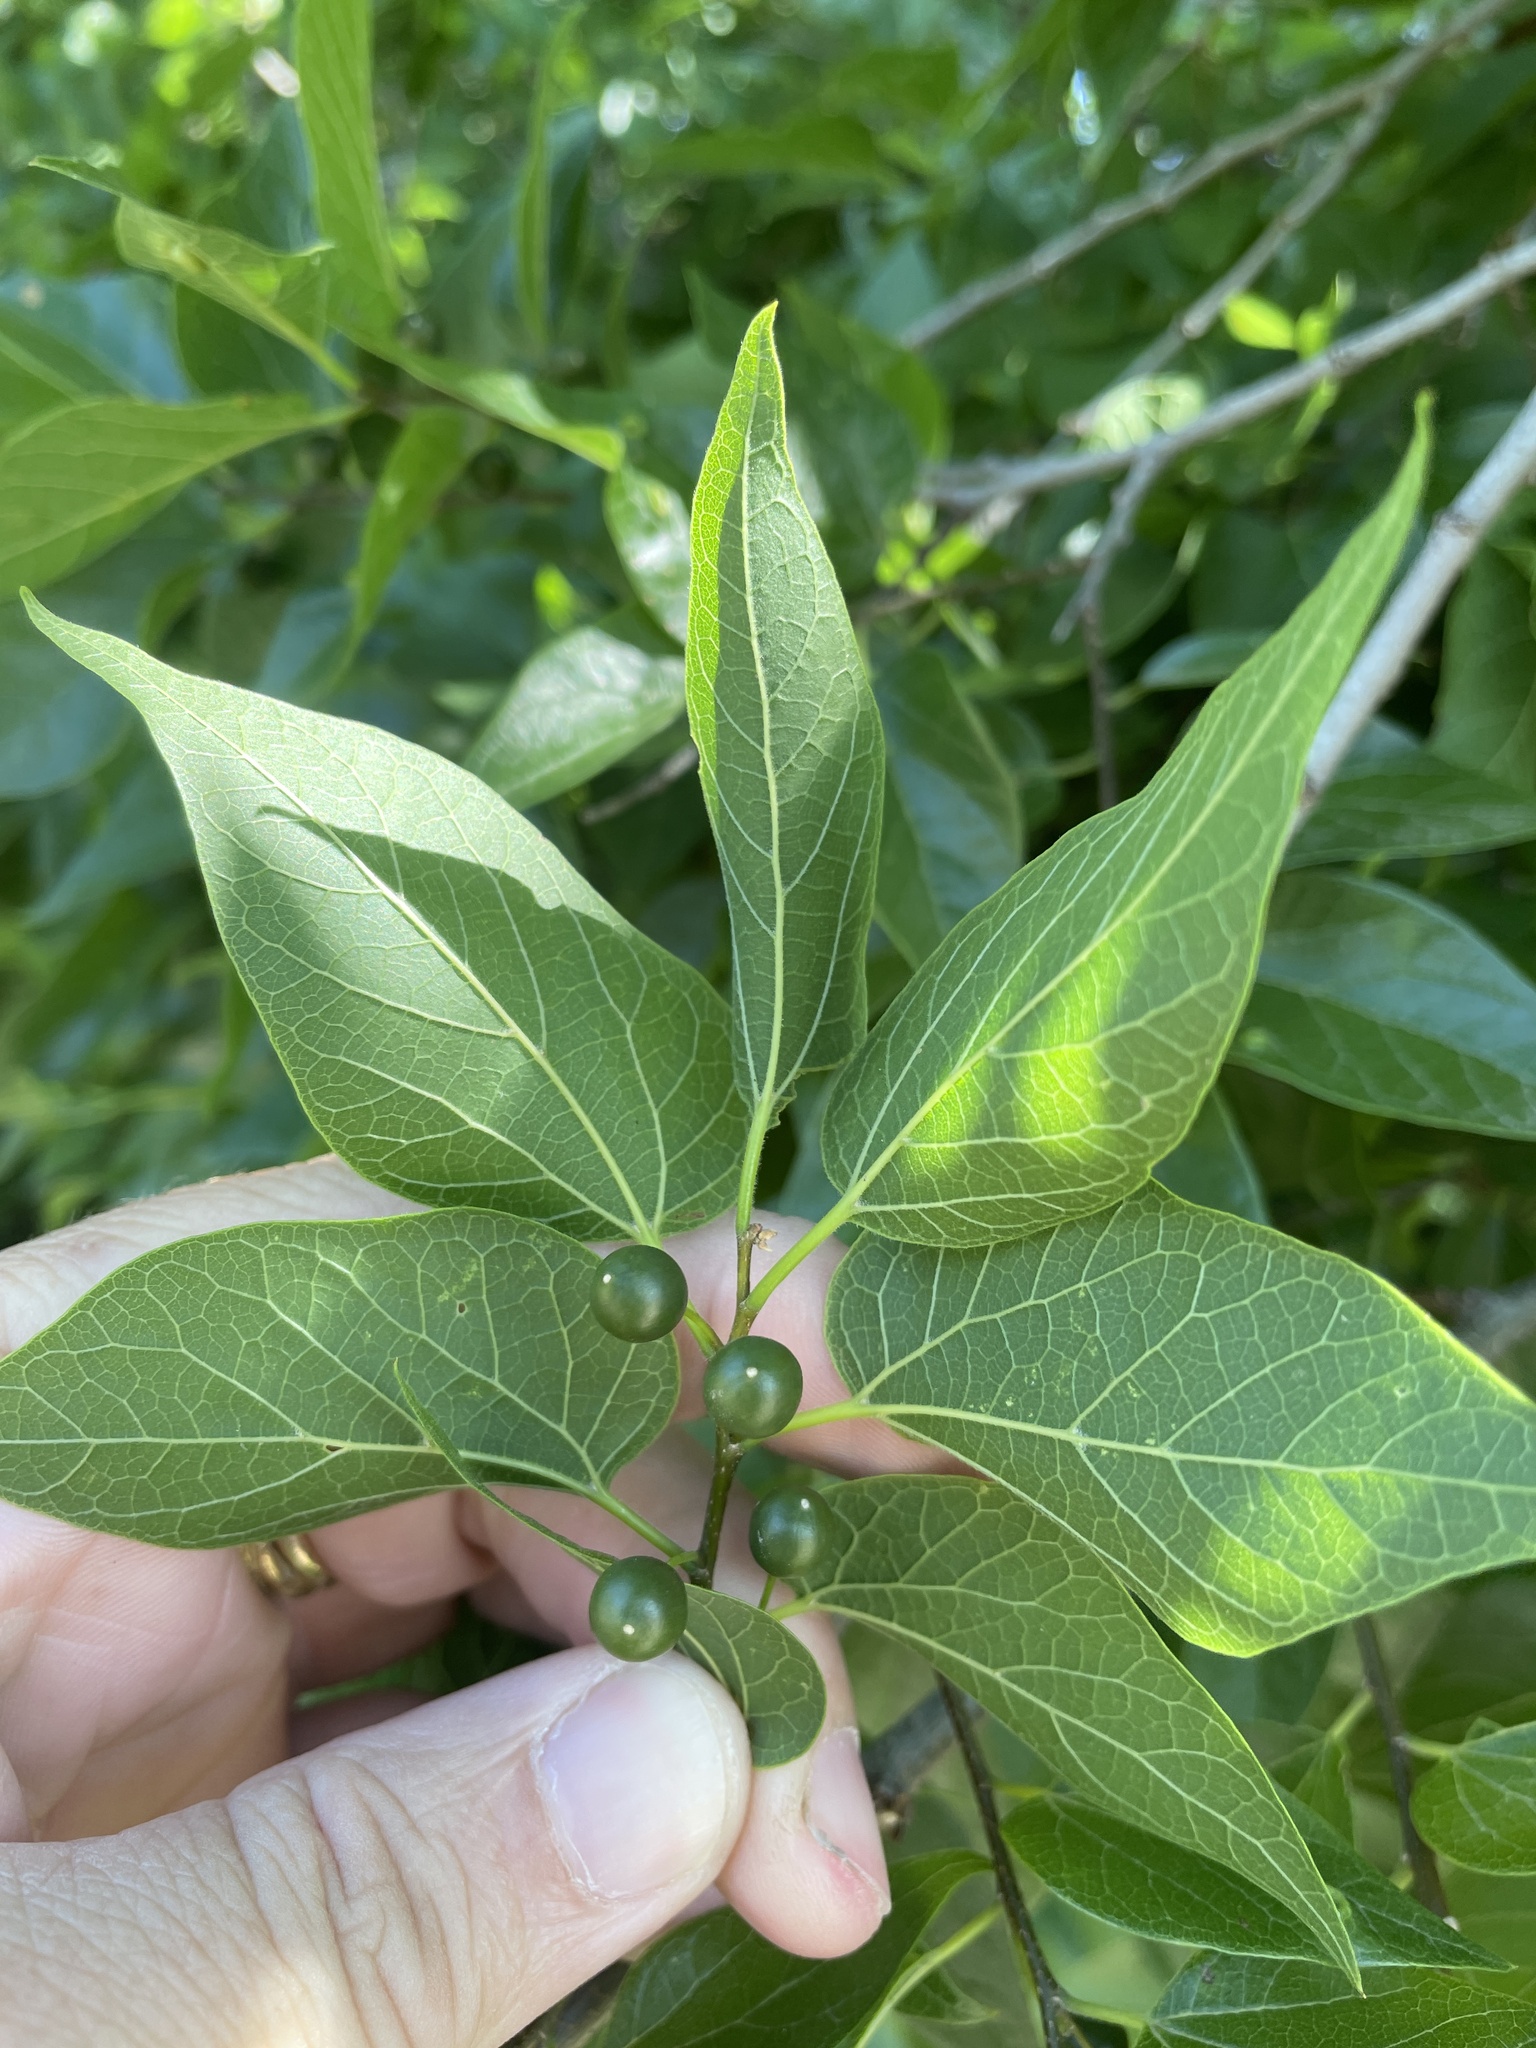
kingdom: Plantae
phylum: Tracheophyta
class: Magnoliopsida
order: Rosales
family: Cannabaceae
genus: Celtis
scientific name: Celtis laevigata
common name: Sugarberry
